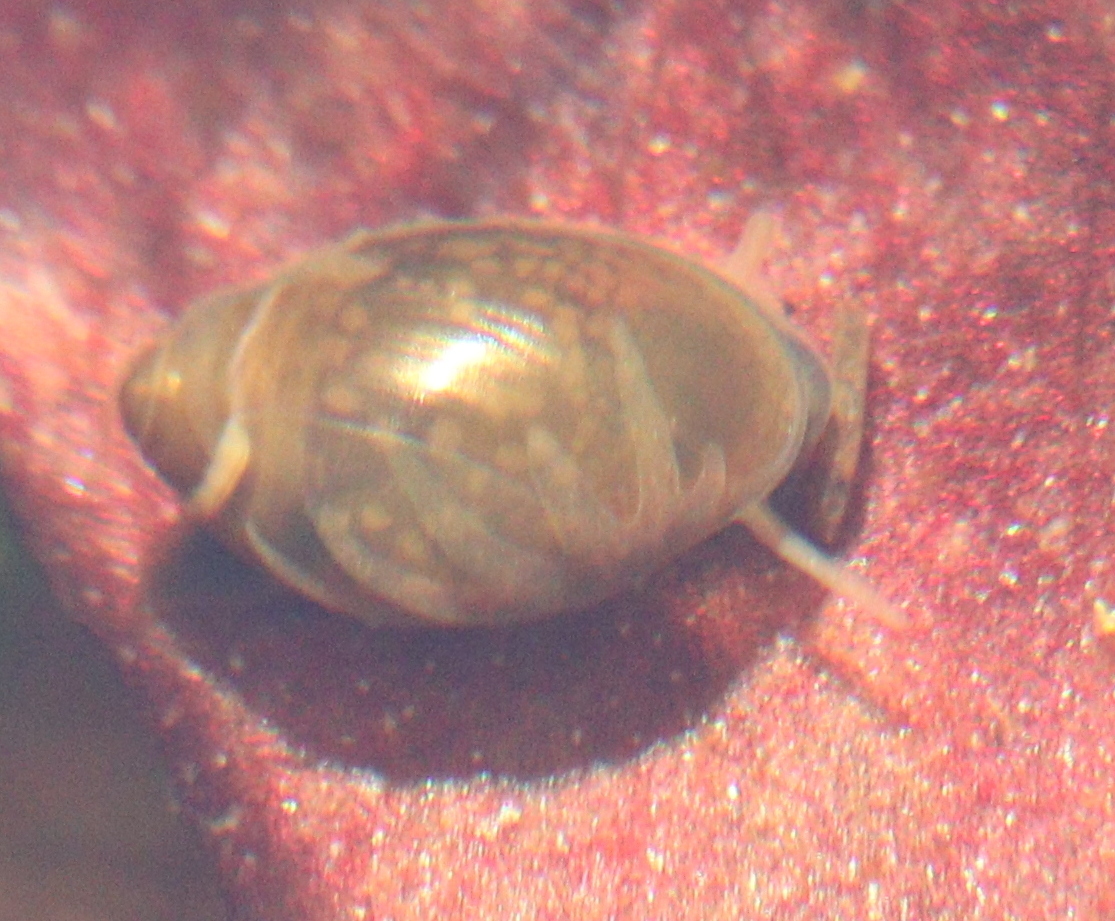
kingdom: Animalia
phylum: Mollusca
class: Gastropoda
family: Physidae
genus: Physa
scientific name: Physa fontinalis
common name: Common bladder snail
